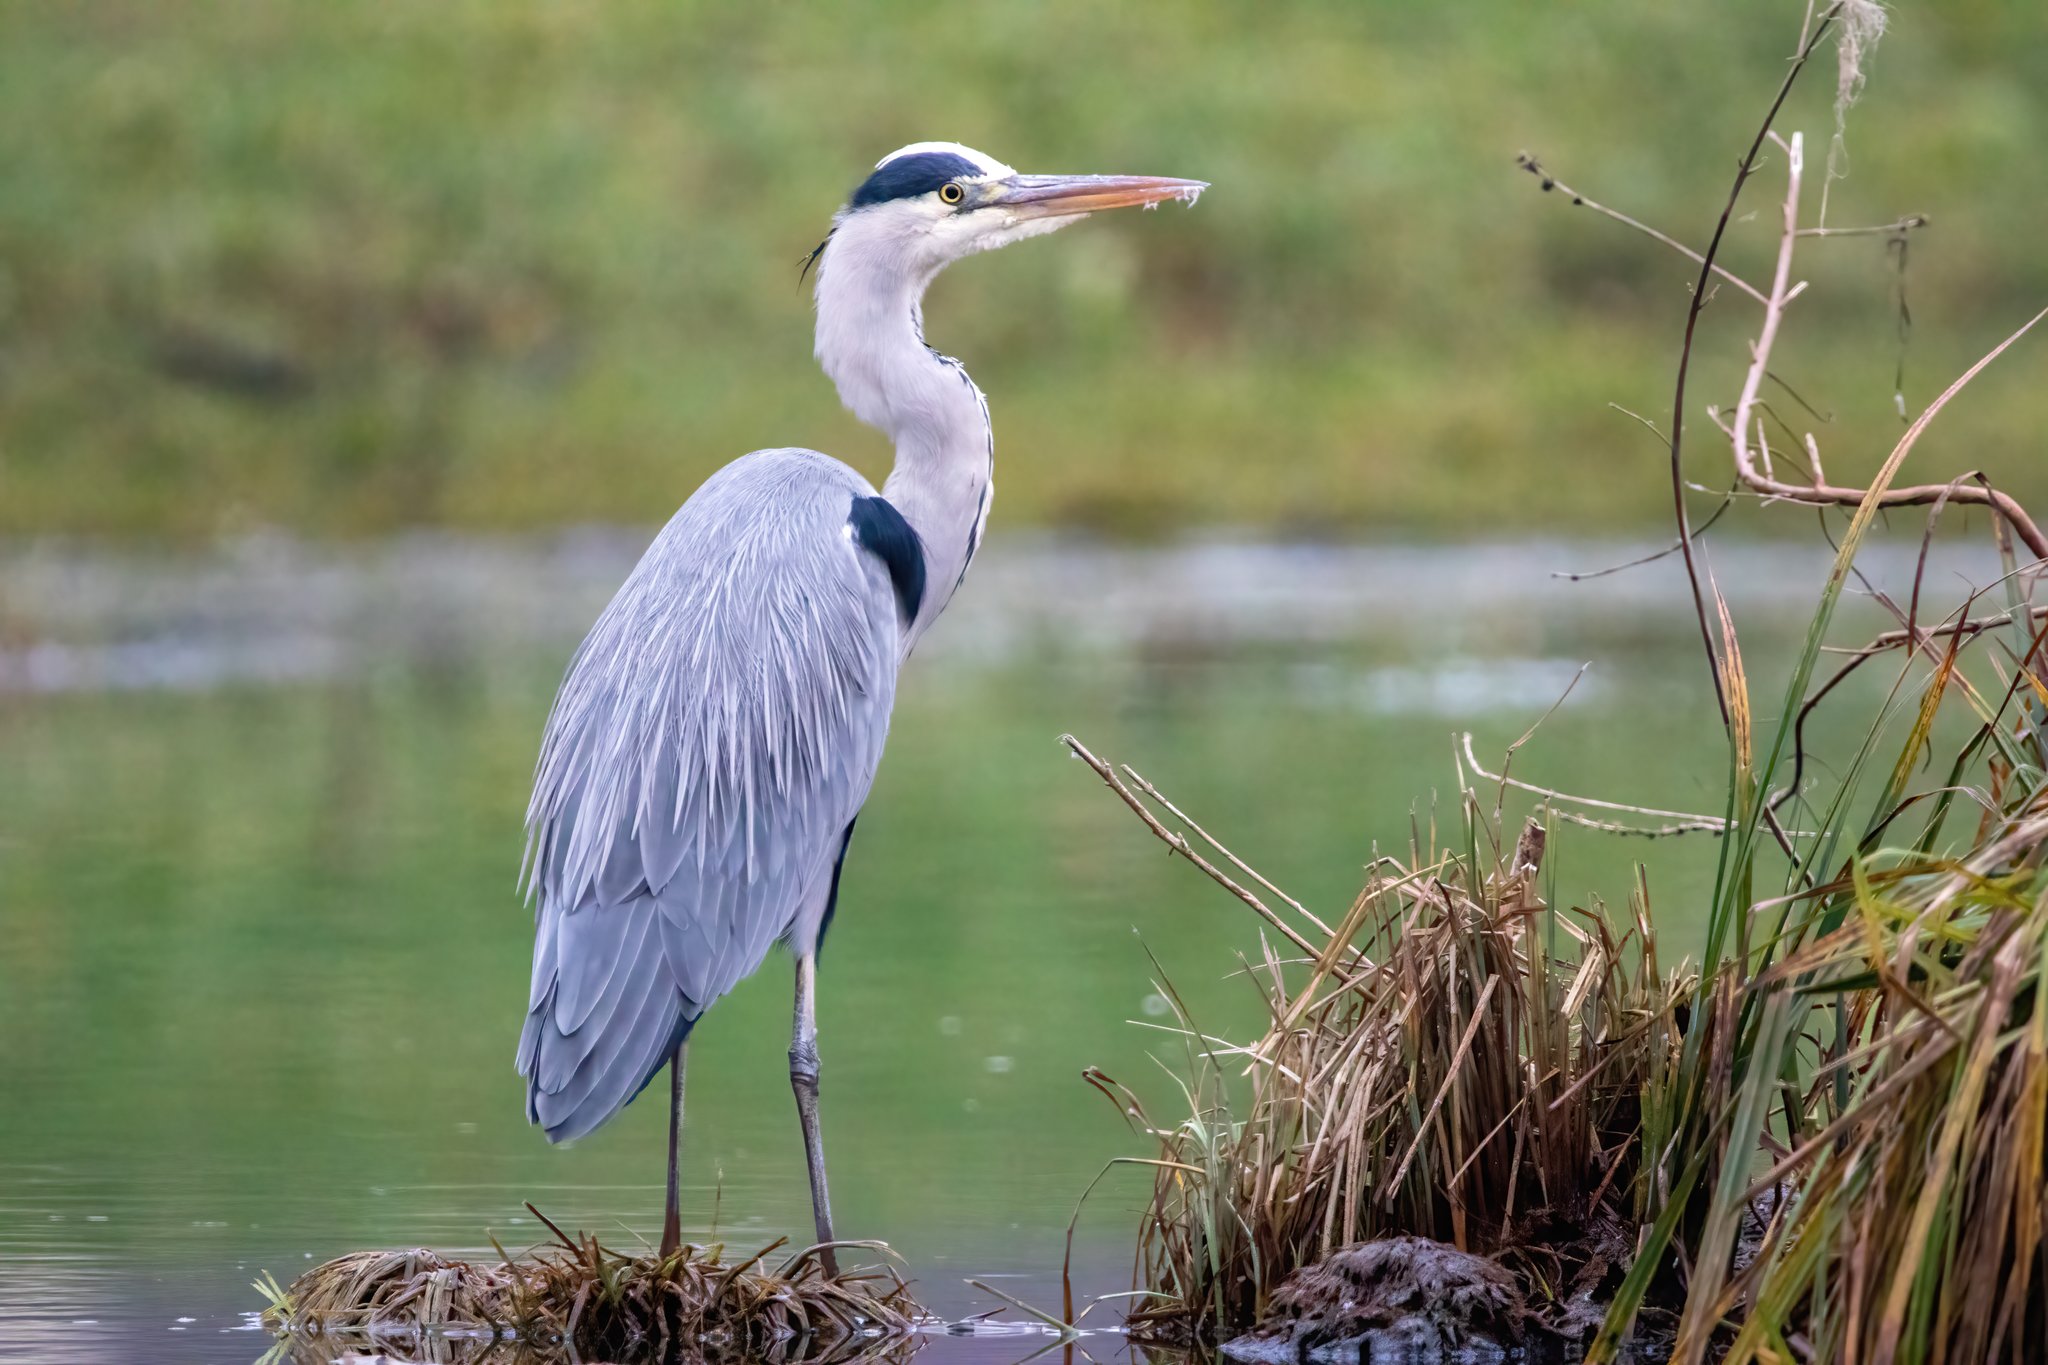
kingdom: Animalia
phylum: Chordata
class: Aves
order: Pelecaniformes
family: Ardeidae
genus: Ardea
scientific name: Ardea cinerea
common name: Grey heron
